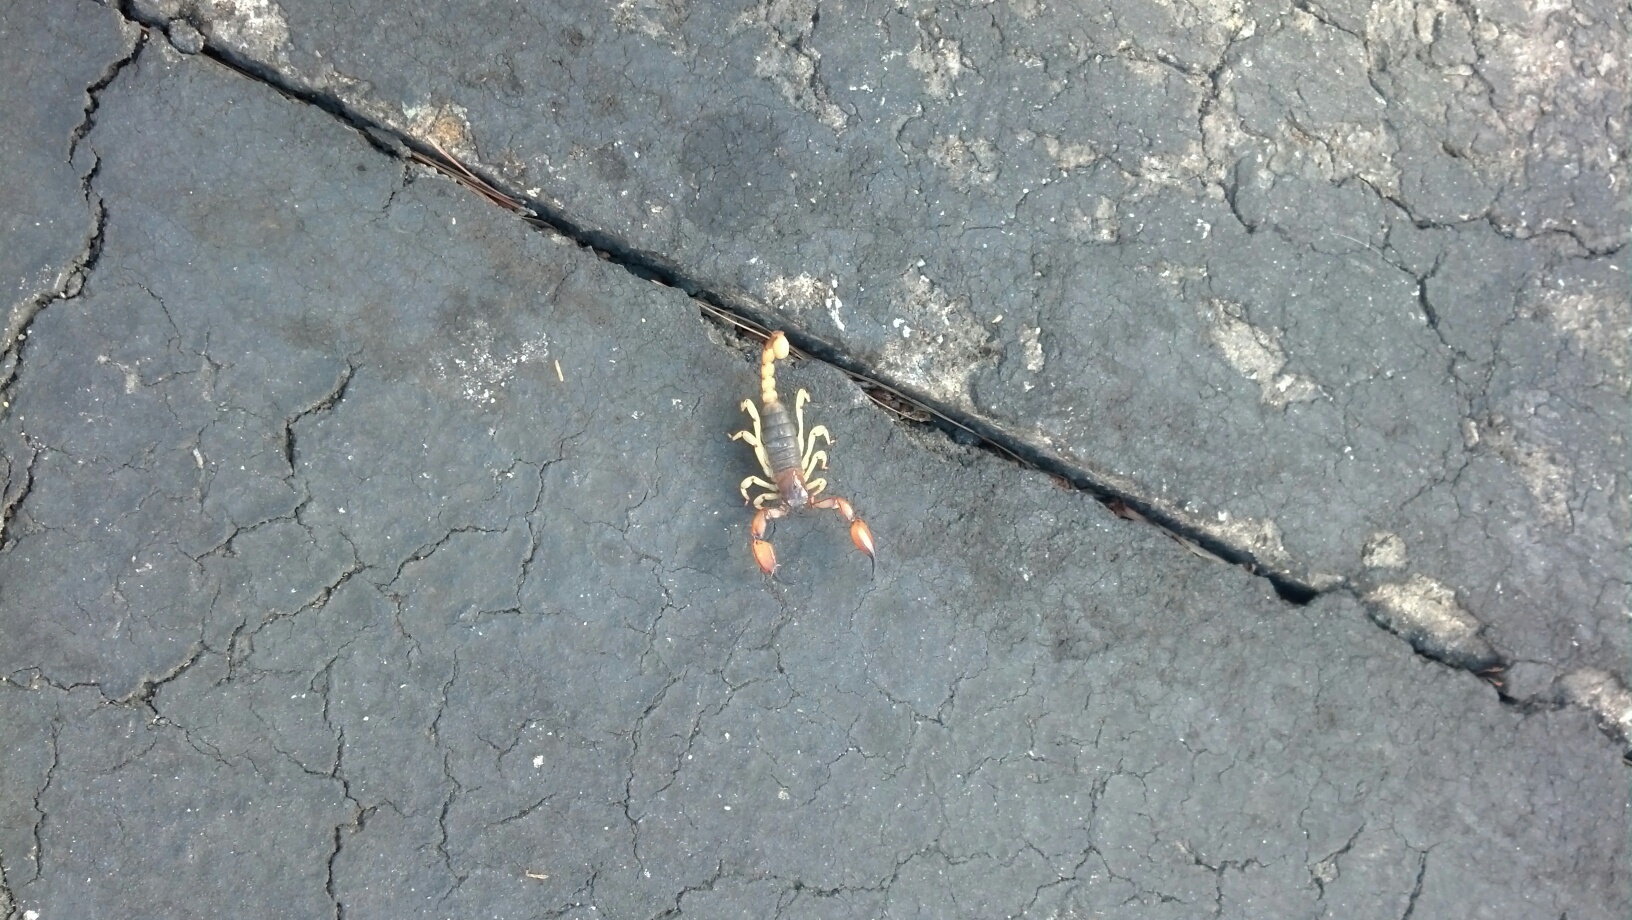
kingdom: Animalia
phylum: Arthropoda
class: Arachnida
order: Scorpiones
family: Chactidae
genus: Anuroctonus
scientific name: Anuroctonus pococki
